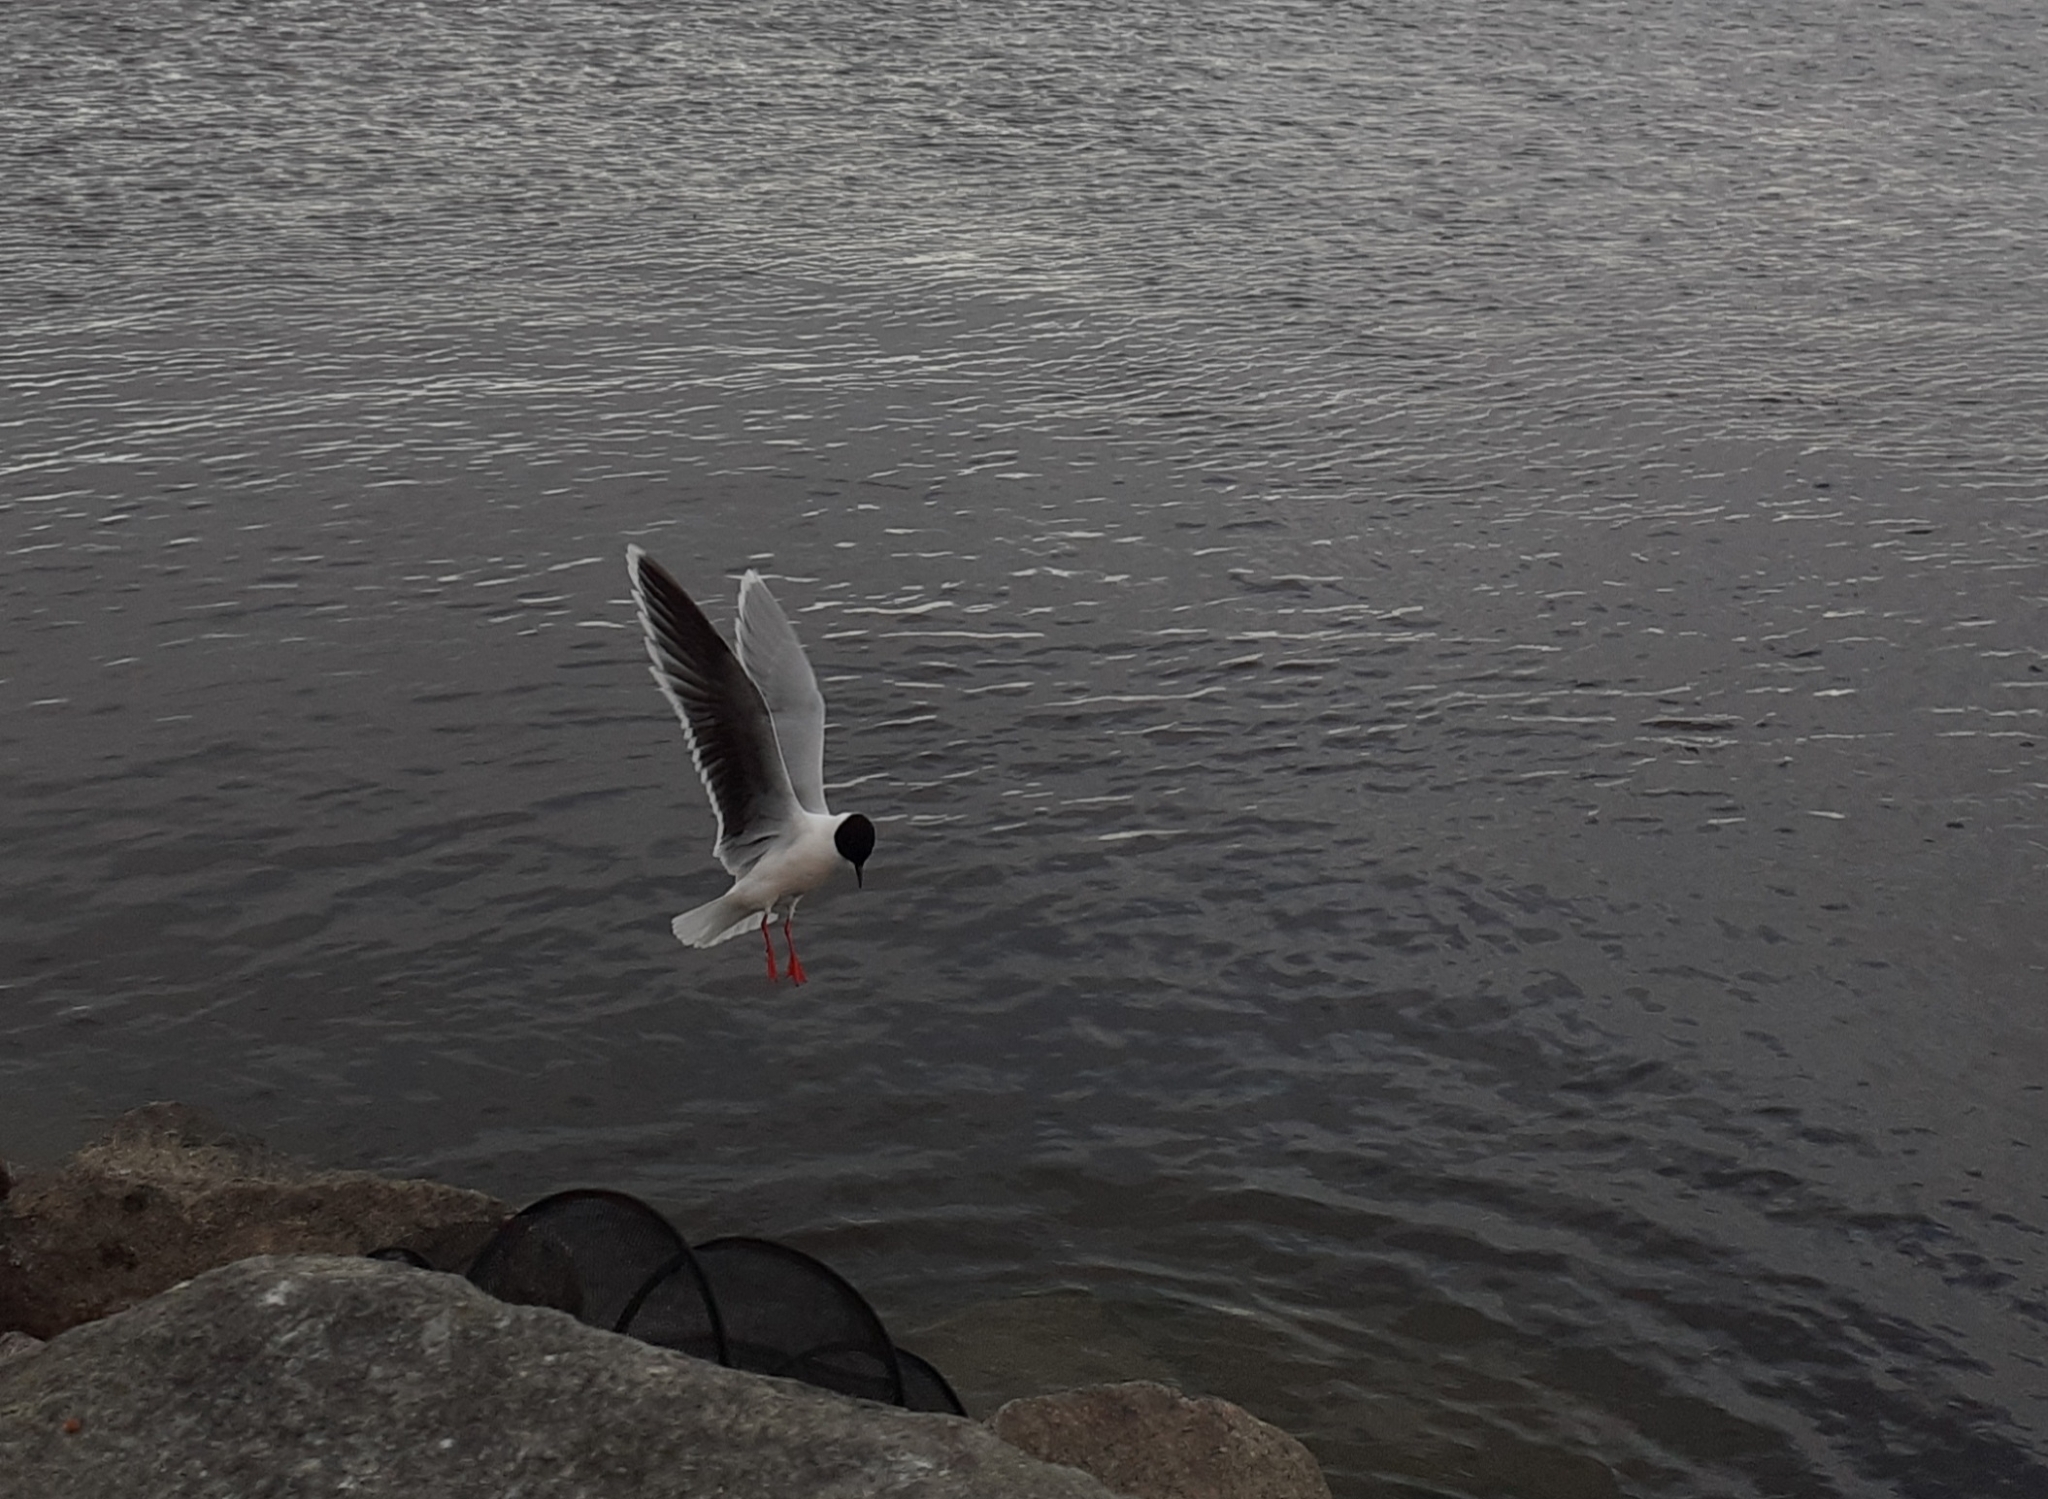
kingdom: Animalia
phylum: Chordata
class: Aves
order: Charadriiformes
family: Laridae
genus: Hydrocoloeus
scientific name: Hydrocoloeus minutus
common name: Little gull
